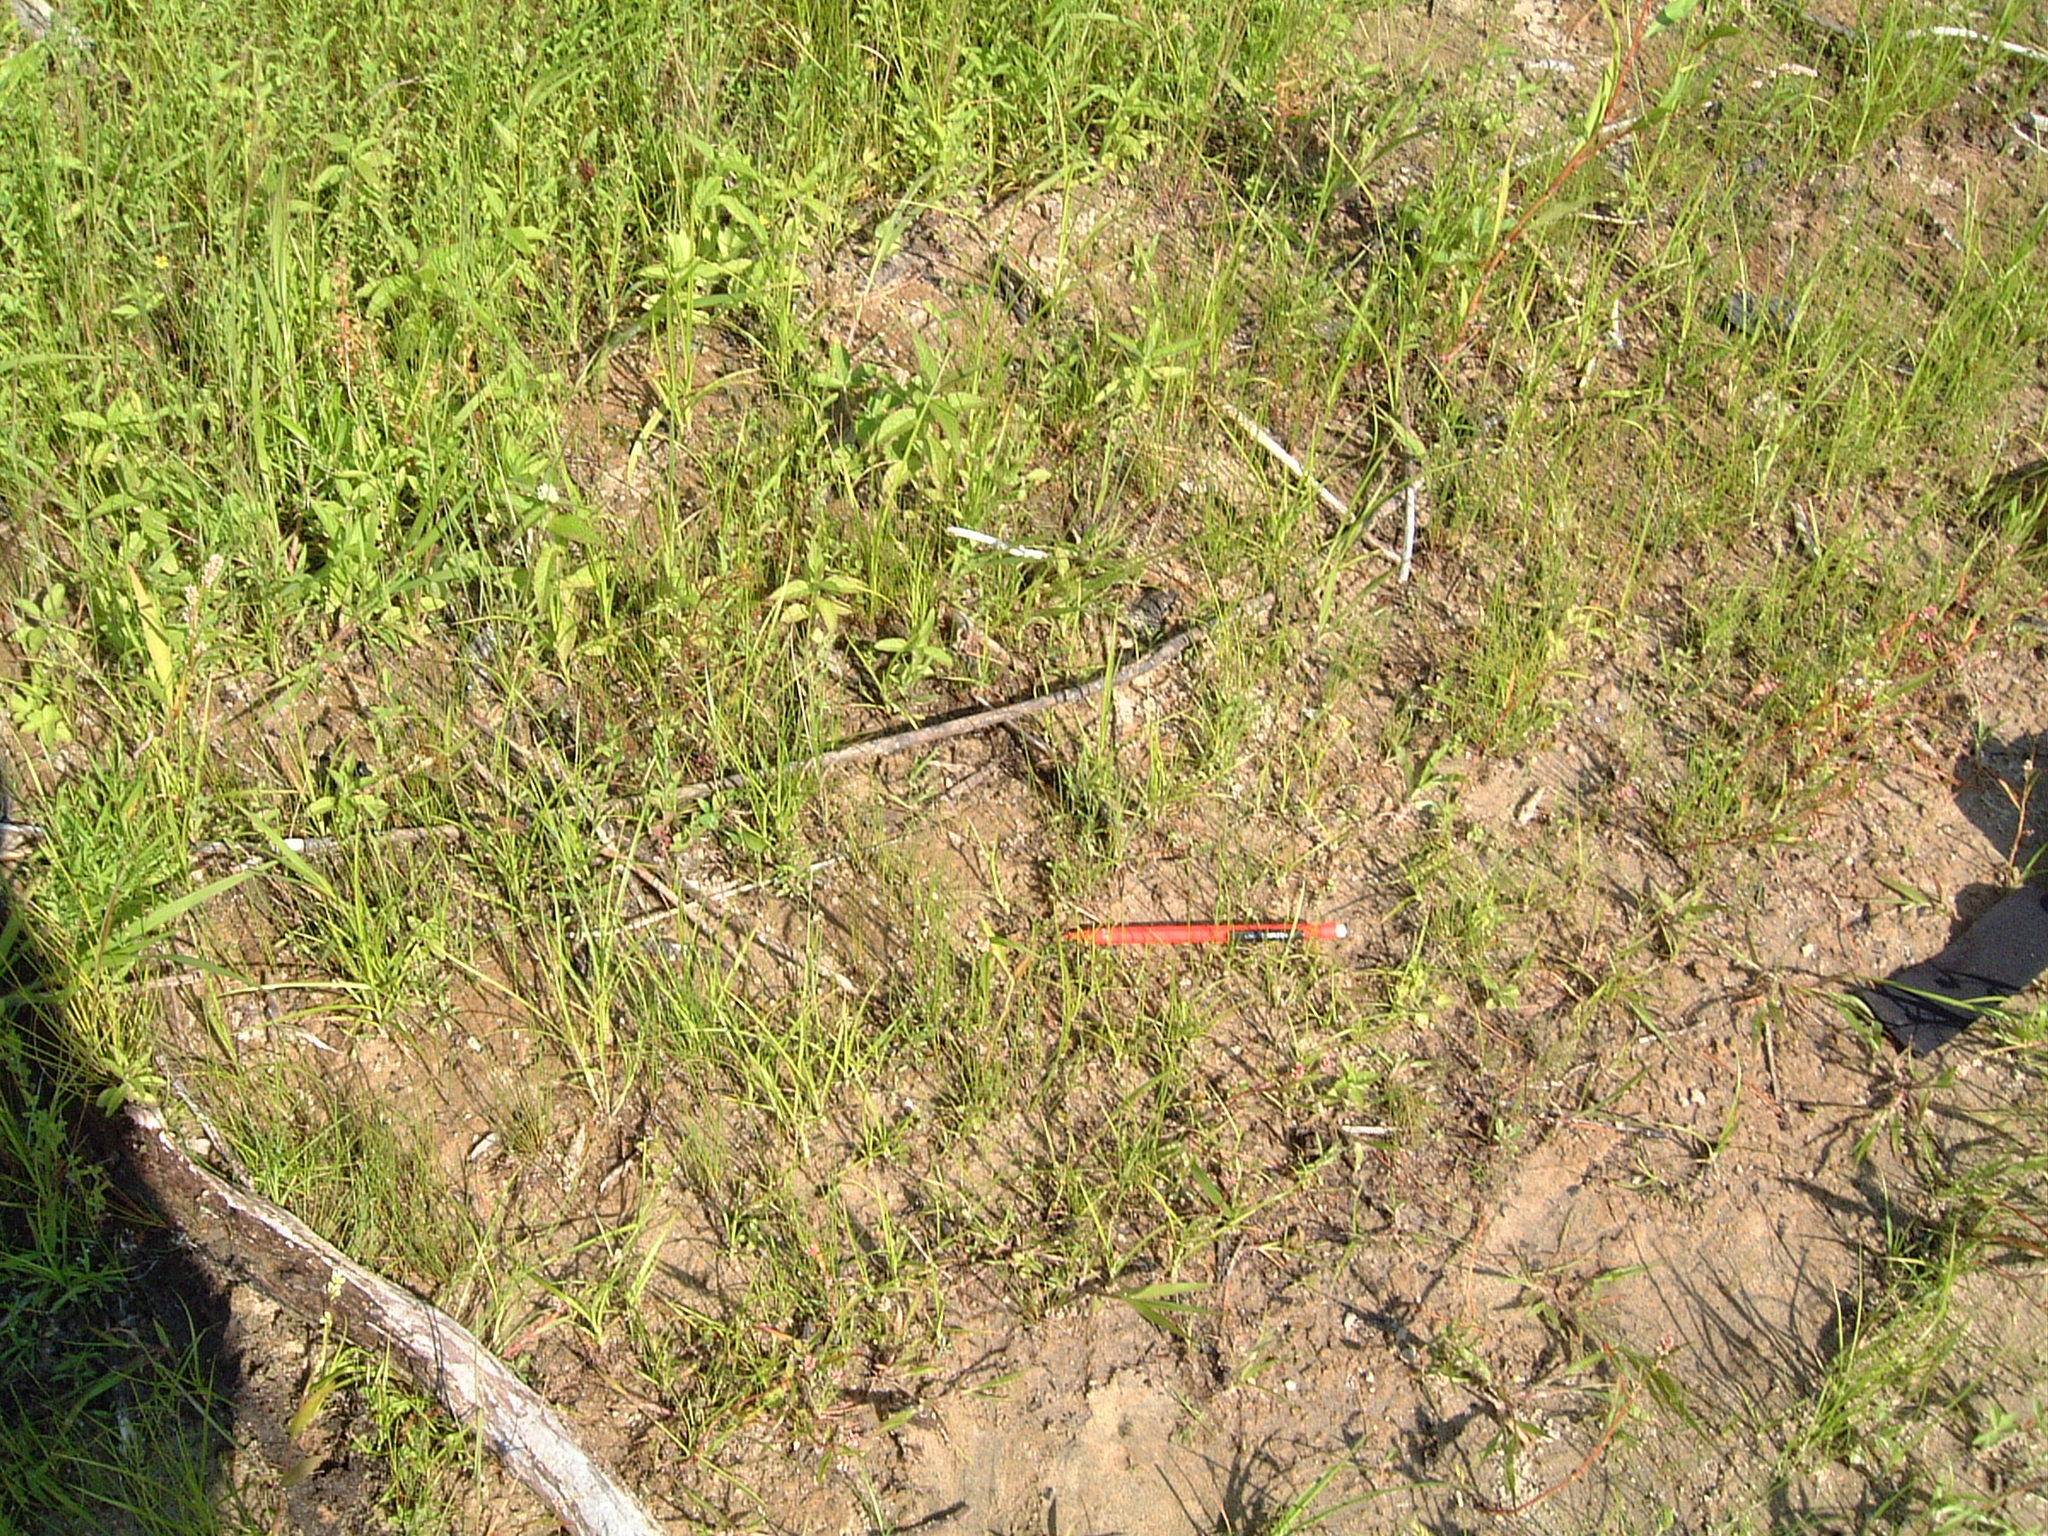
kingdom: Plantae
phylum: Tracheophyta
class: Liliopsida
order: Poales
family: Cyperaceae
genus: Cyperus
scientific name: Cyperus subsquarrosus
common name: Dwarf bulrush
